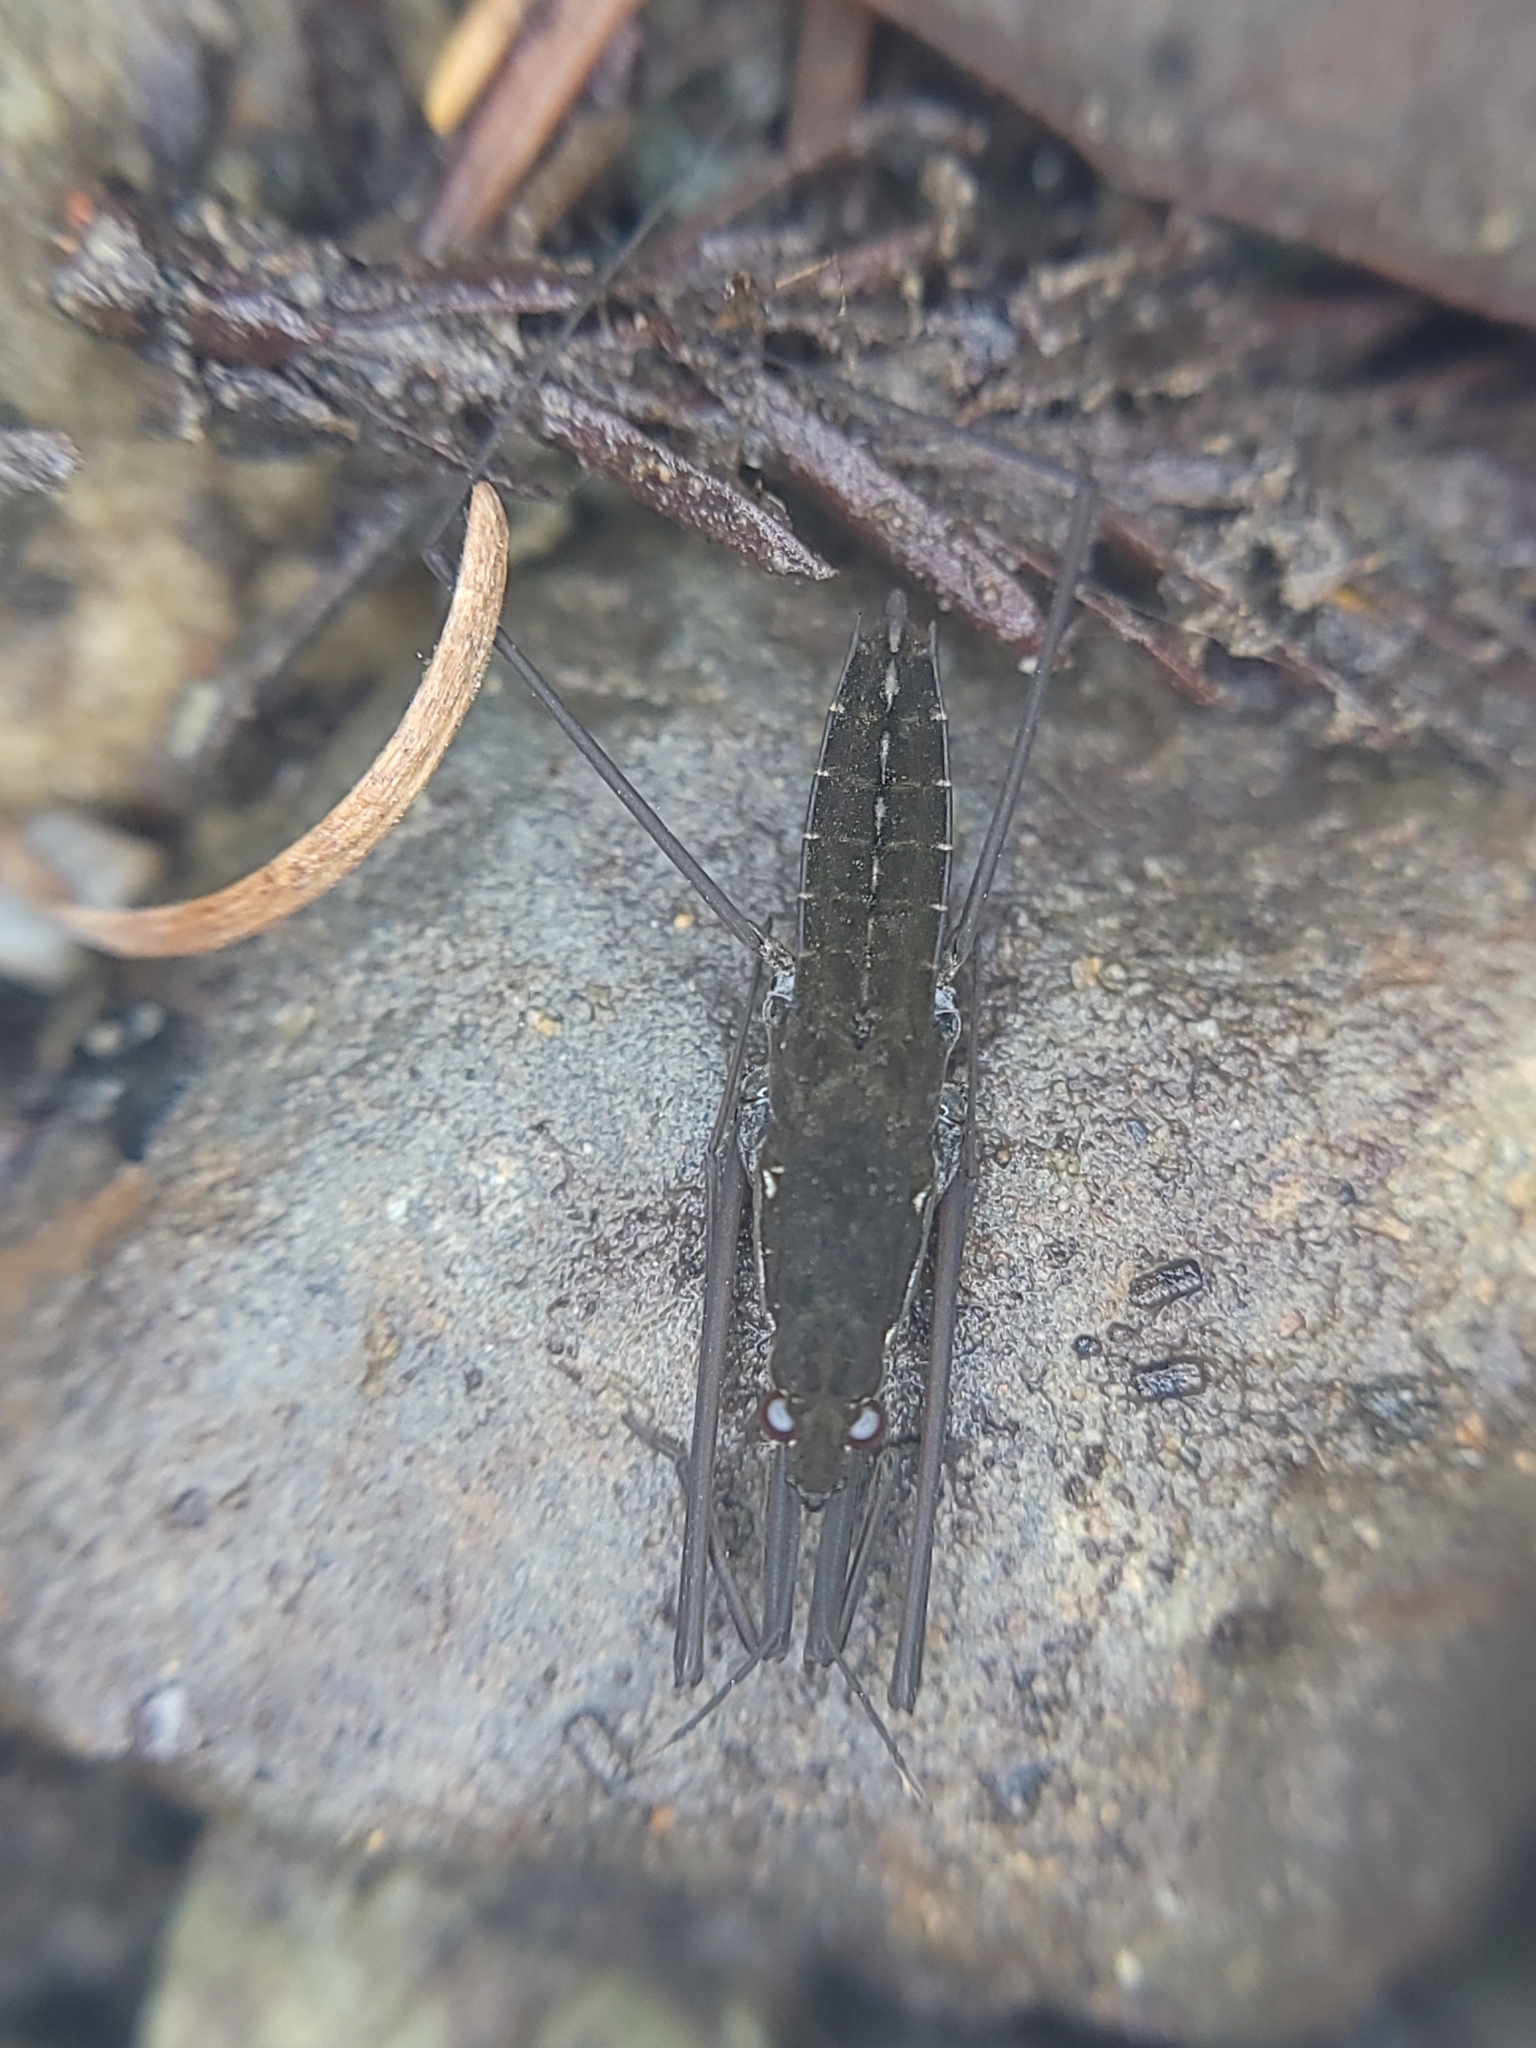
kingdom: Animalia
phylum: Arthropoda
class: Insecta
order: Hemiptera
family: Gerridae
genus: Aquarius
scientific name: Aquarius remigis
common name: Common water strider
